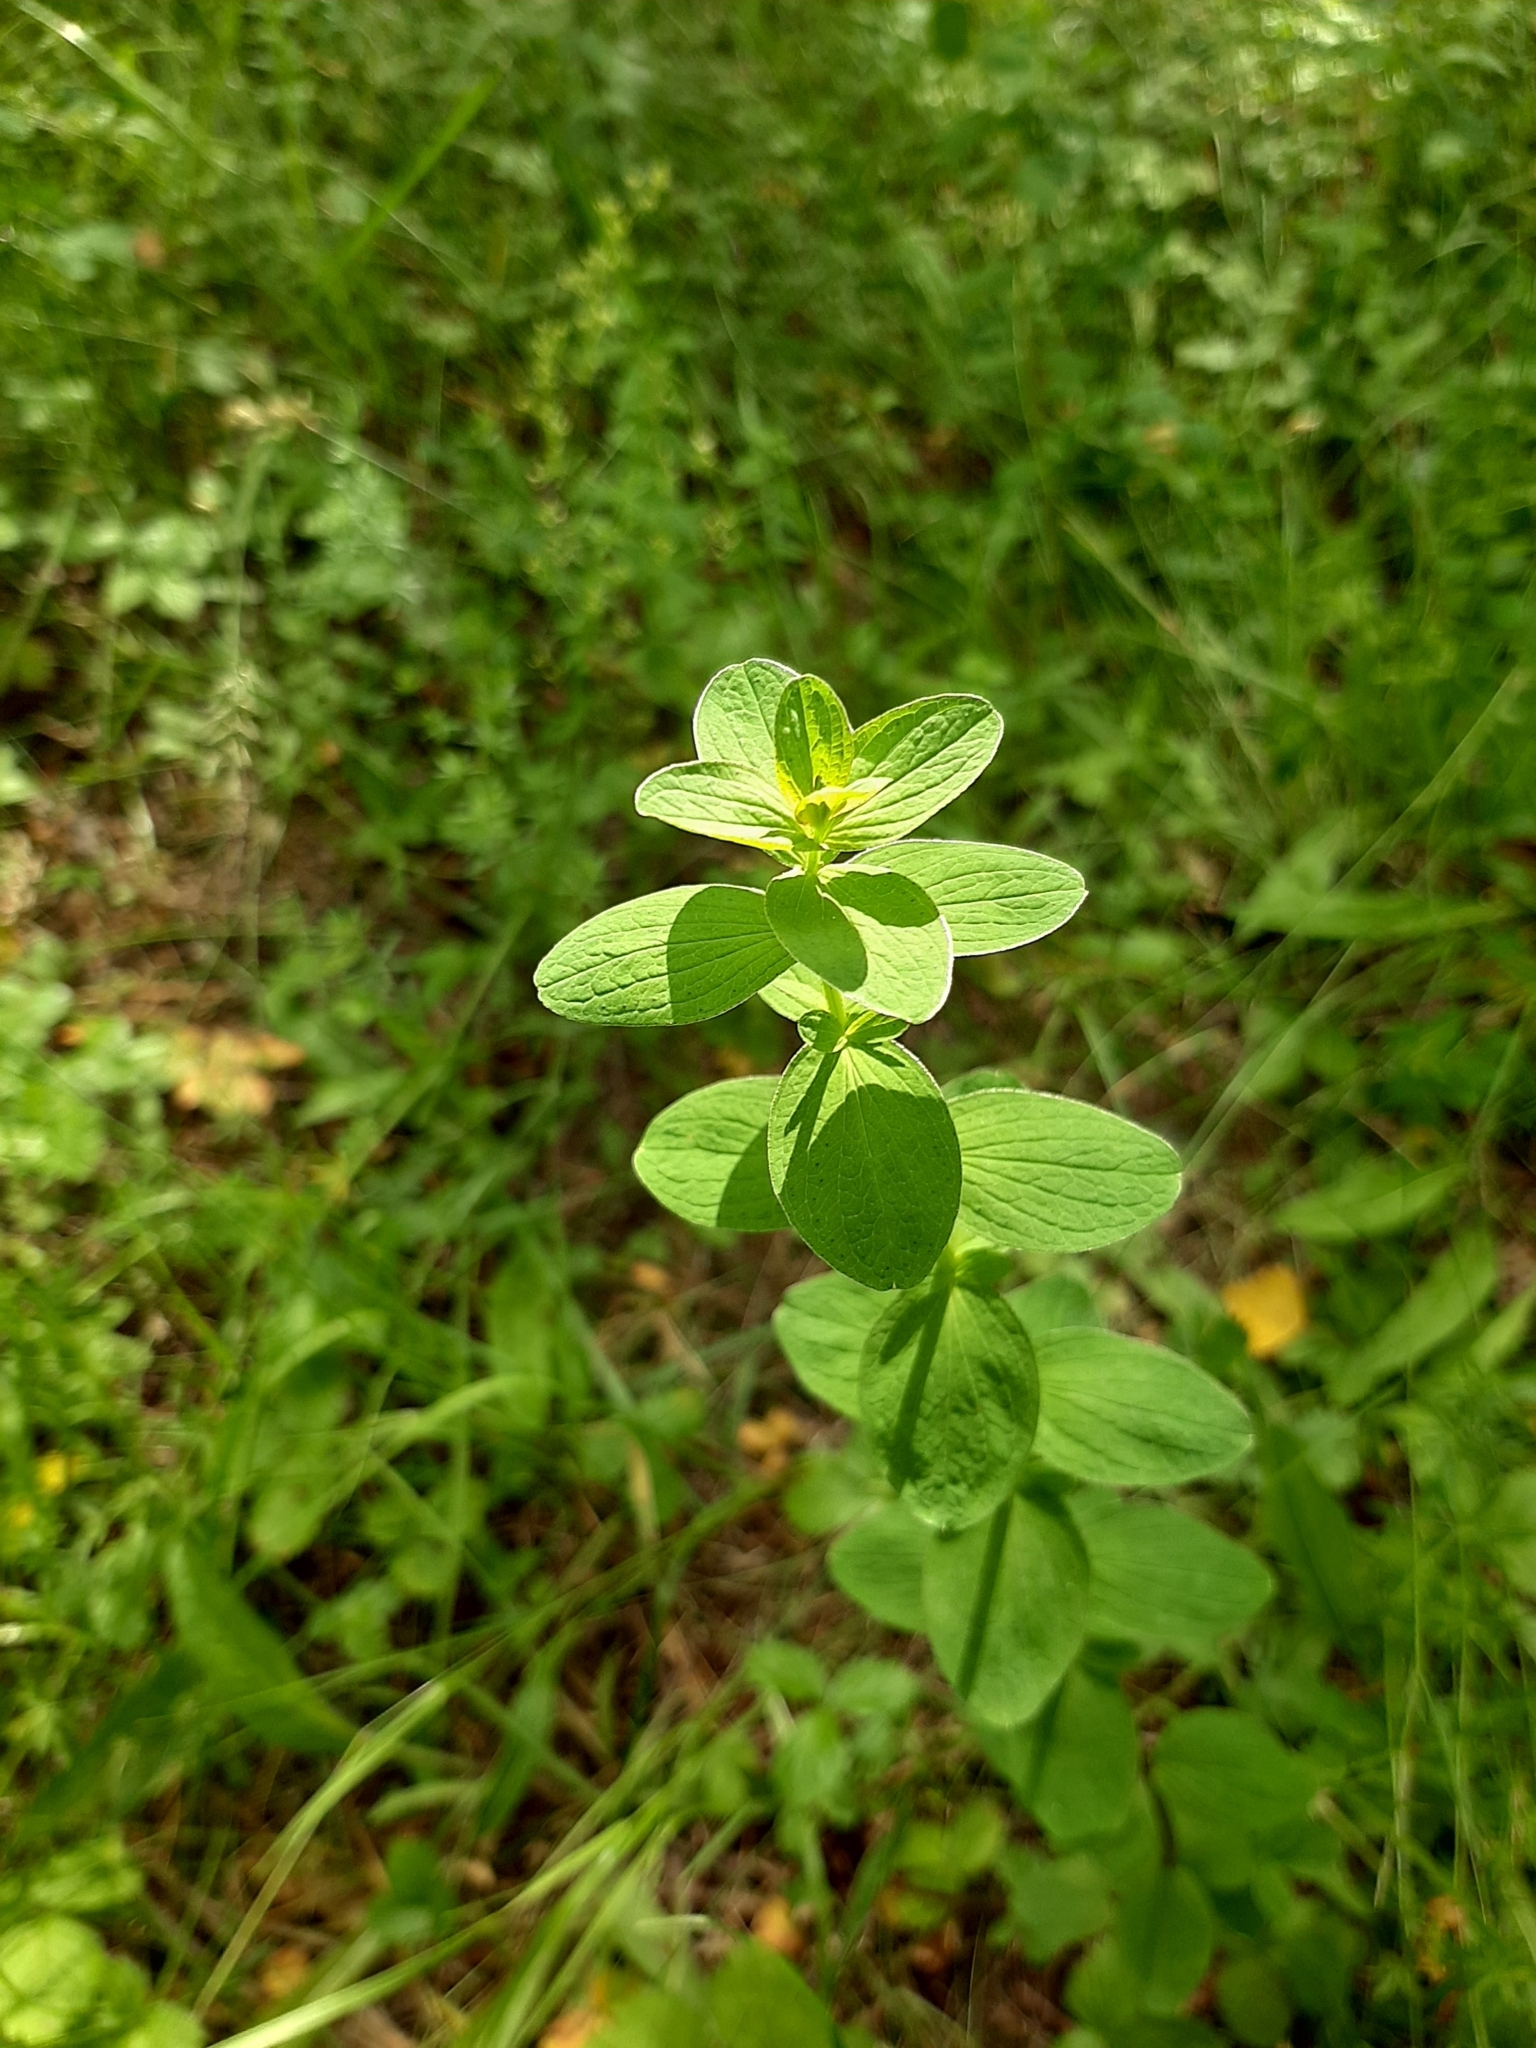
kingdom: Plantae
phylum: Tracheophyta
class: Magnoliopsida
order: Malpighiales
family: Hypericaceae
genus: Hypericum
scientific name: Hypericum maculatum
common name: Imperforate st. john's-wort
